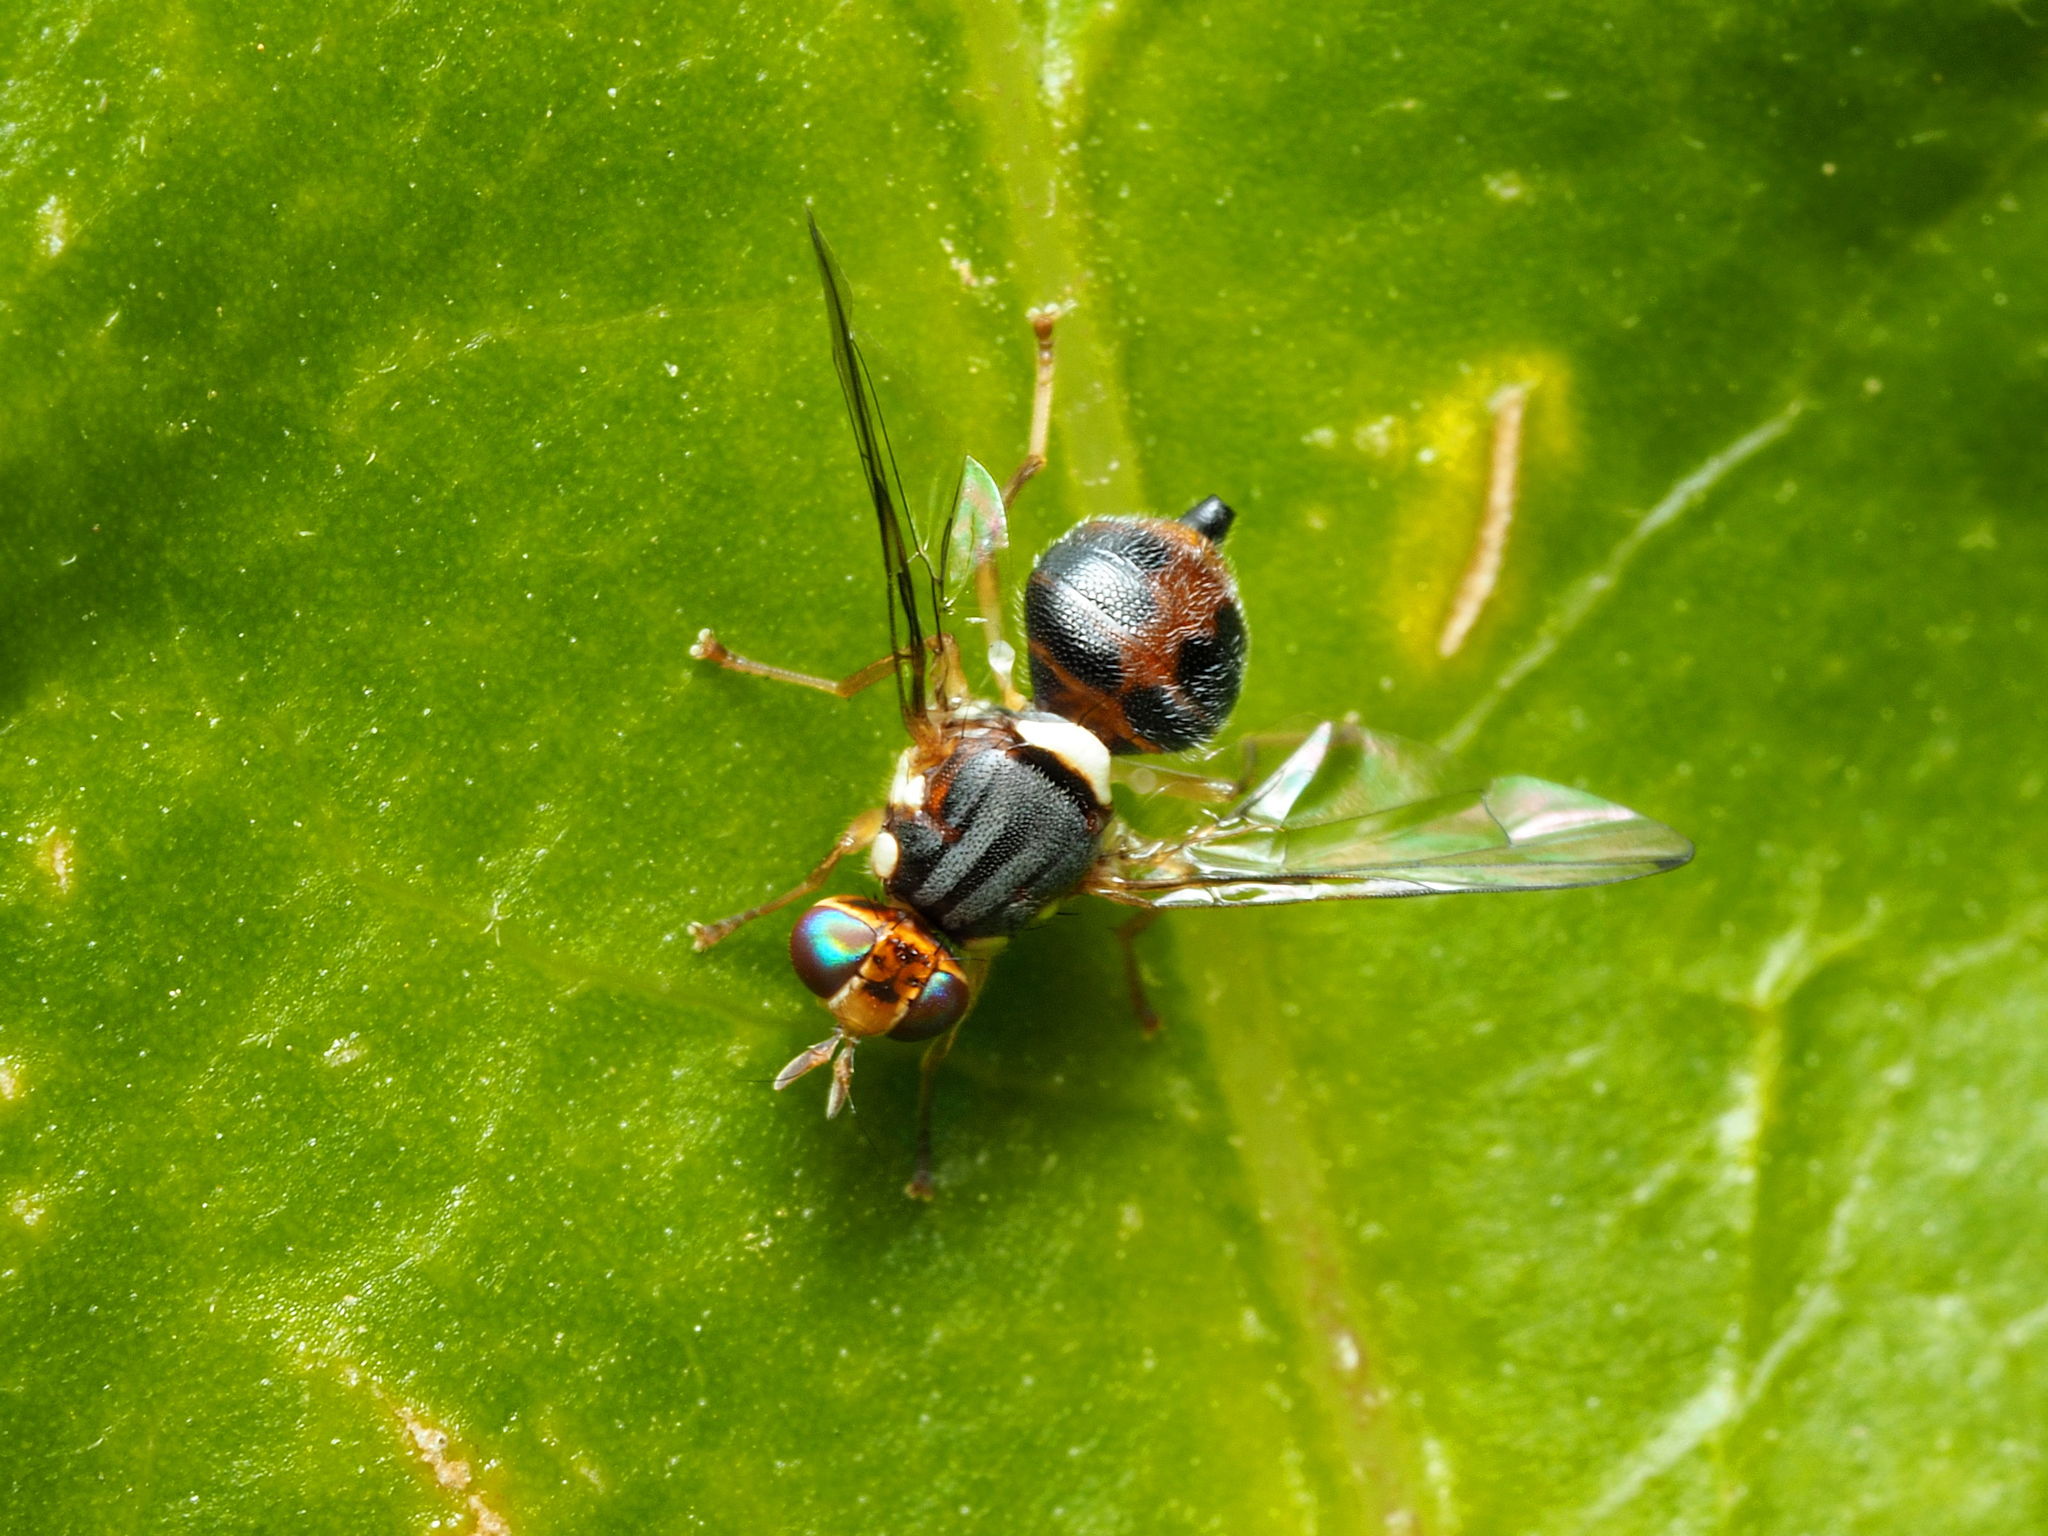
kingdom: Animalia
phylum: Arthropoda
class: Insecta
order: Diptera
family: Tephritidae
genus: Bactrocera
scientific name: Bactrocera oleae
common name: Olive fruit fly
